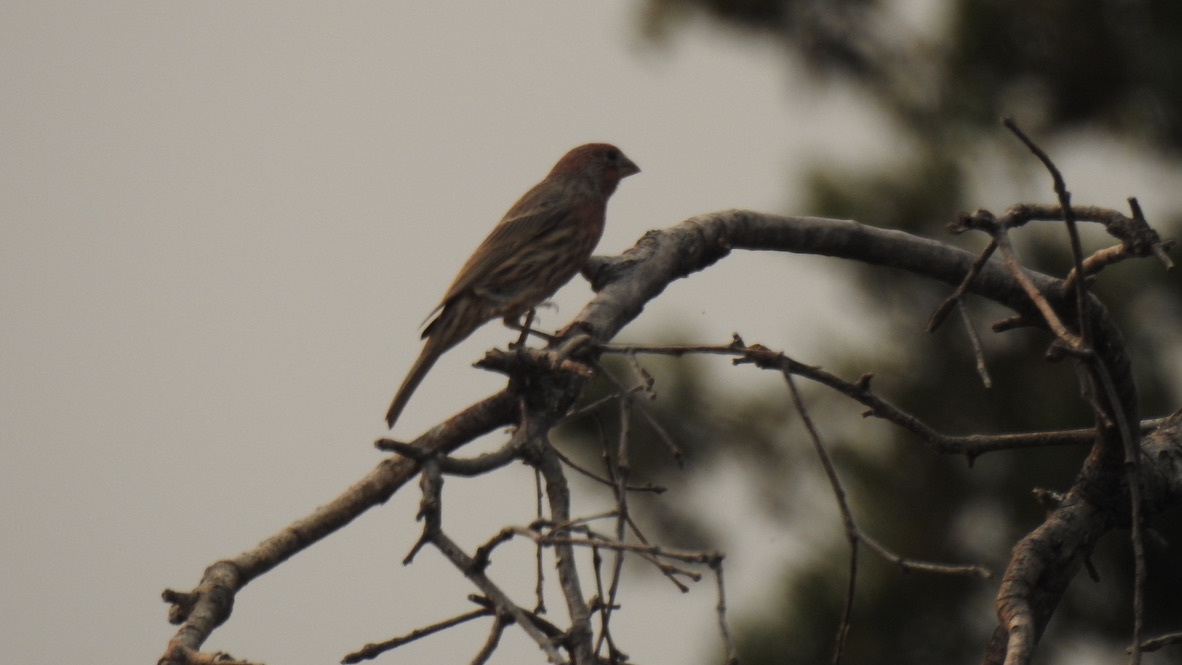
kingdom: Animalia
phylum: Chordata
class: Aves
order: Passeriformes
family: Fringillidae
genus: Haemorhous
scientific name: Haemorhous mexicanus
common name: House finch
